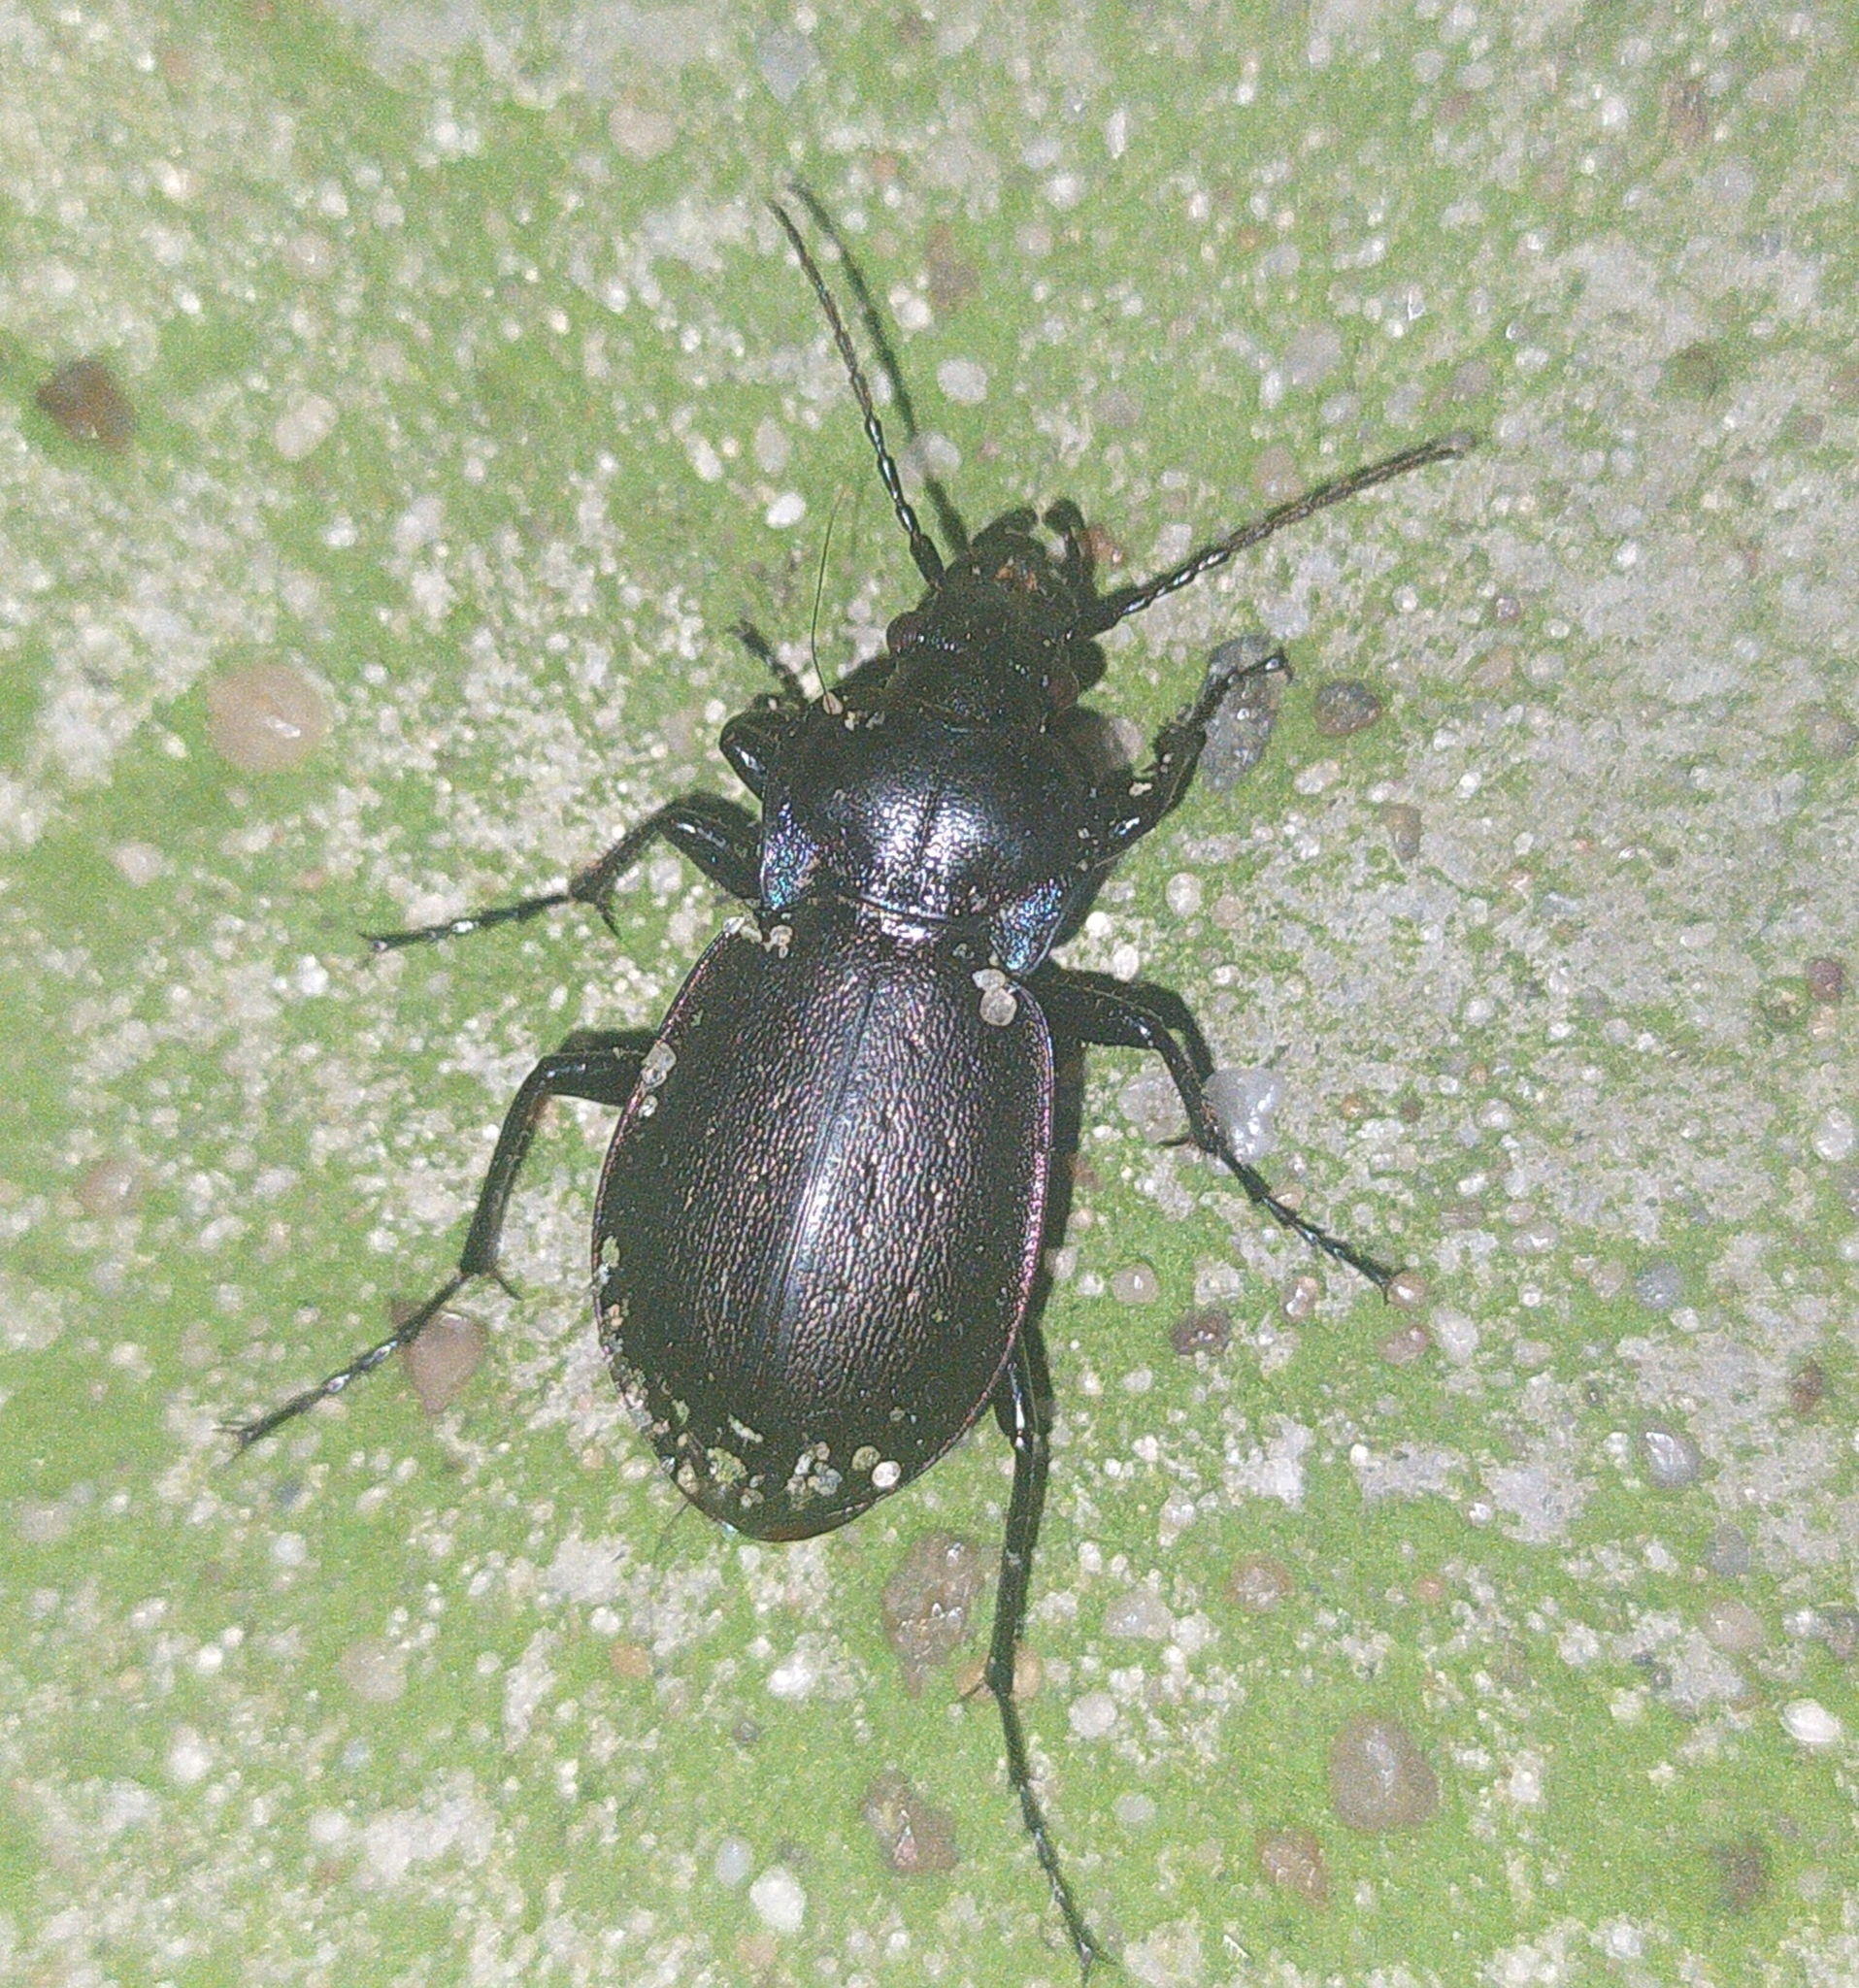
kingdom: Animalia
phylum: Arthropoda
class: Insecta
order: Coleoptera
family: Carabidae
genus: Carabus
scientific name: Carabus nemoralis
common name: European ground beetle
